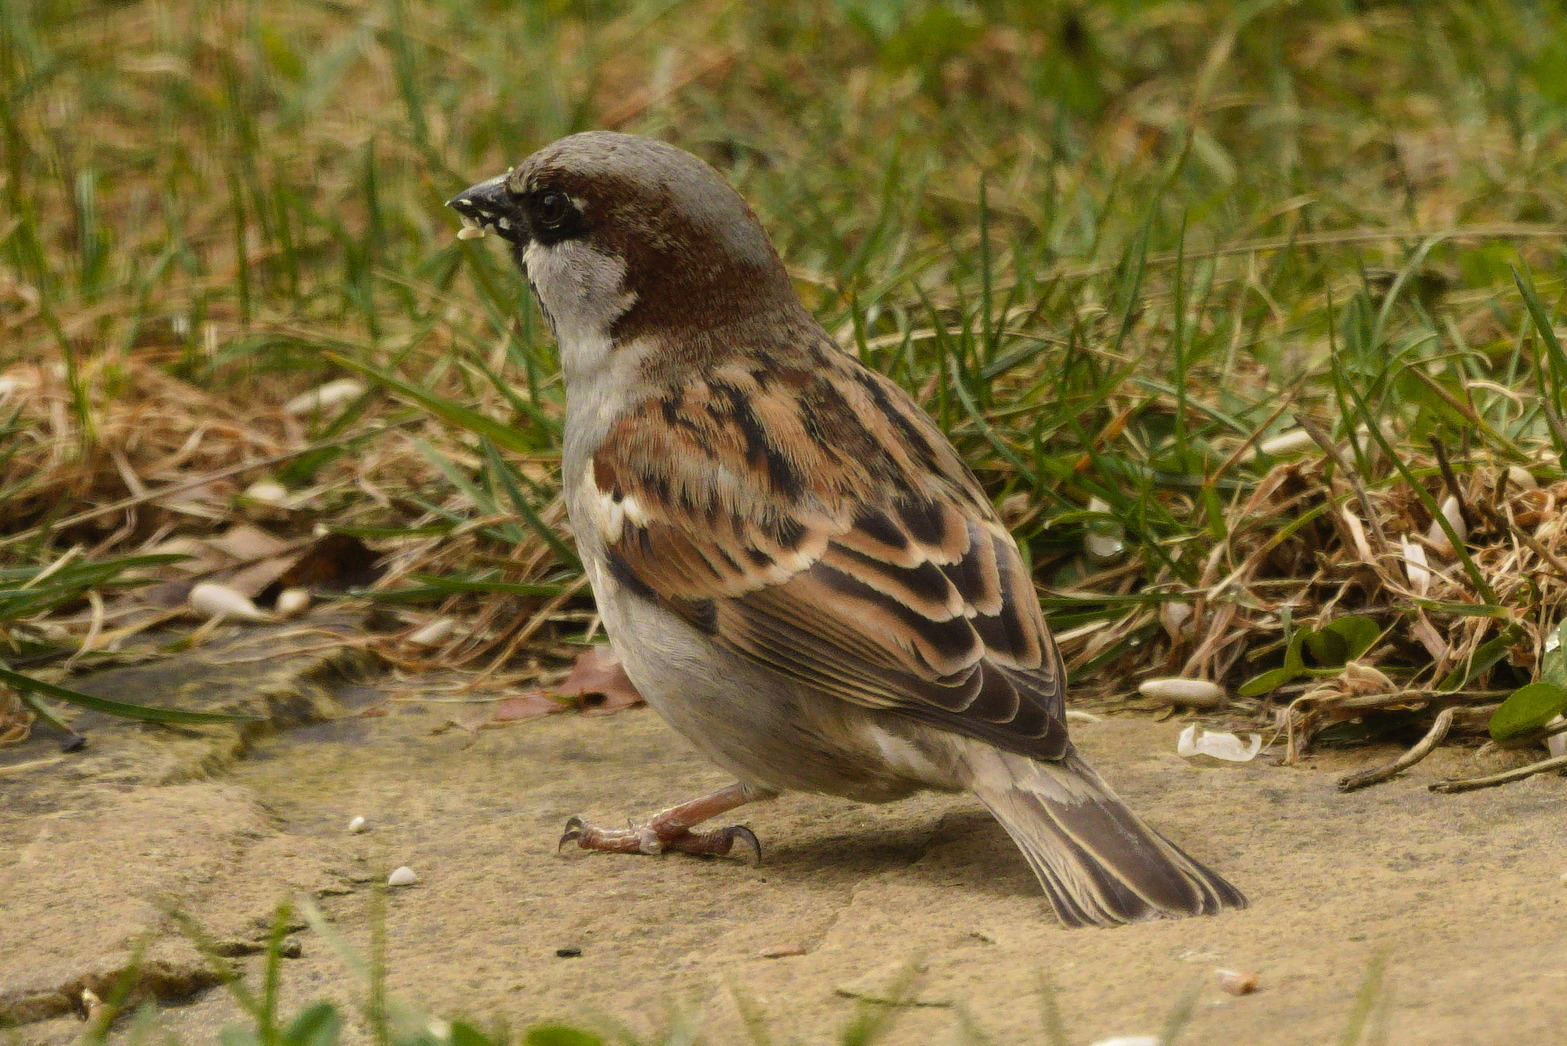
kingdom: Animalia
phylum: Chordata
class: Aves
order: Passeriformes
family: Passeridae
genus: Passer
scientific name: Passer domesticus
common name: House sparrow
